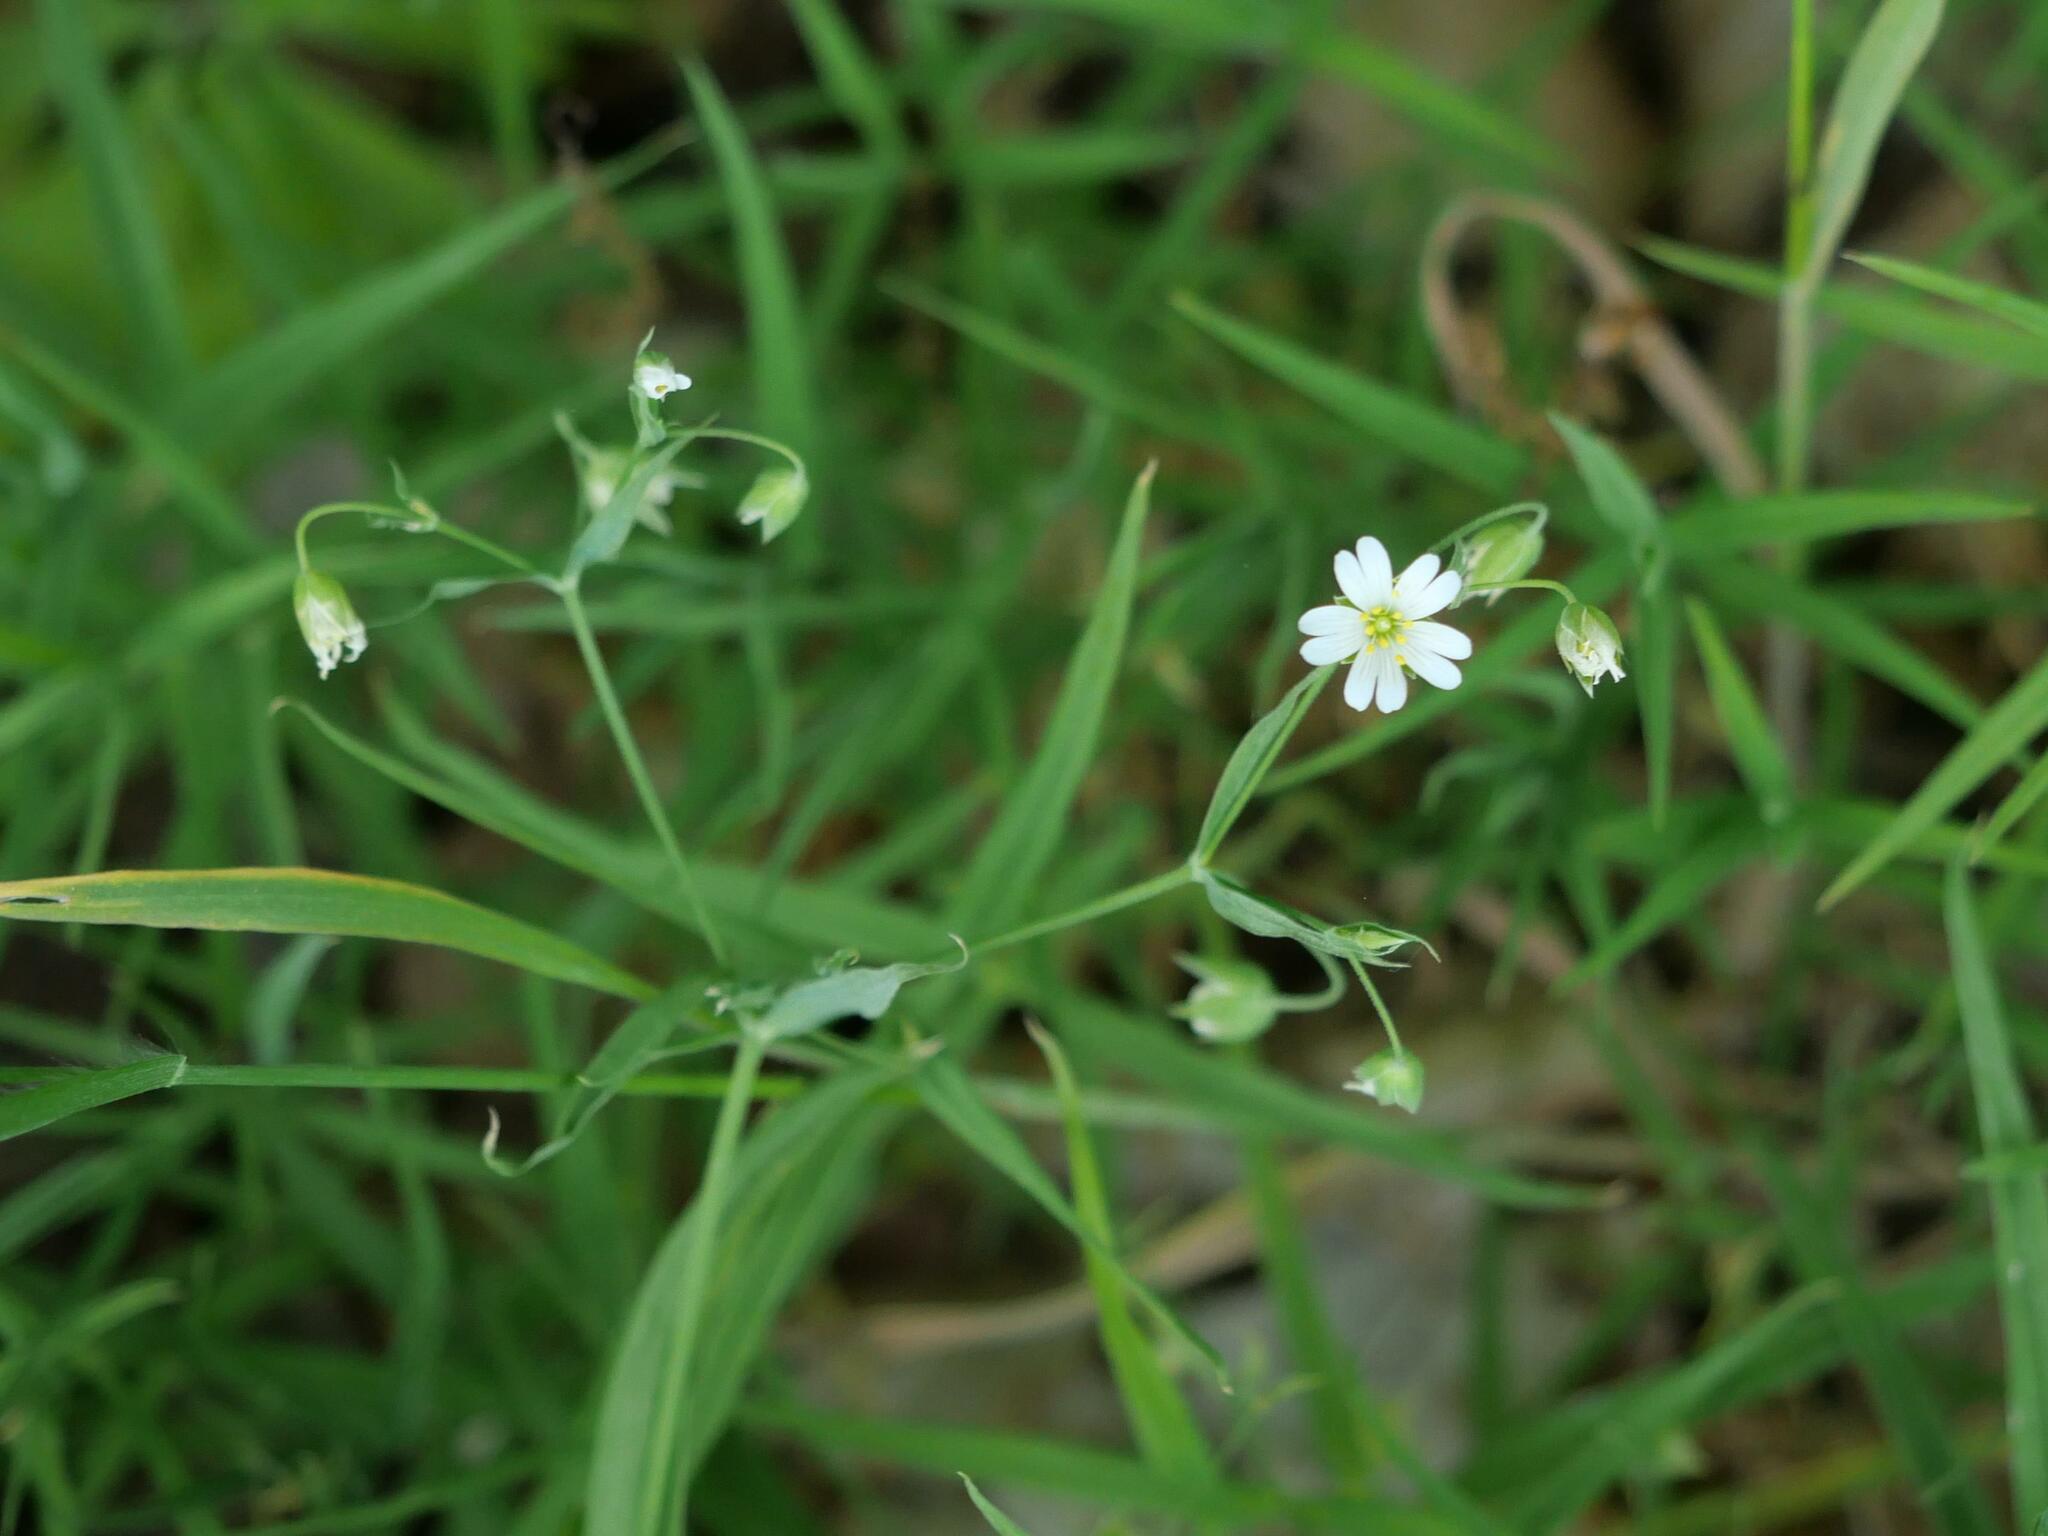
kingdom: Plantae
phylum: Tracheophyta
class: Magnoliopsida
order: Caryophyllales
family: Caryophyllaceae
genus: Rabelera
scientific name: Rabelera holostea
